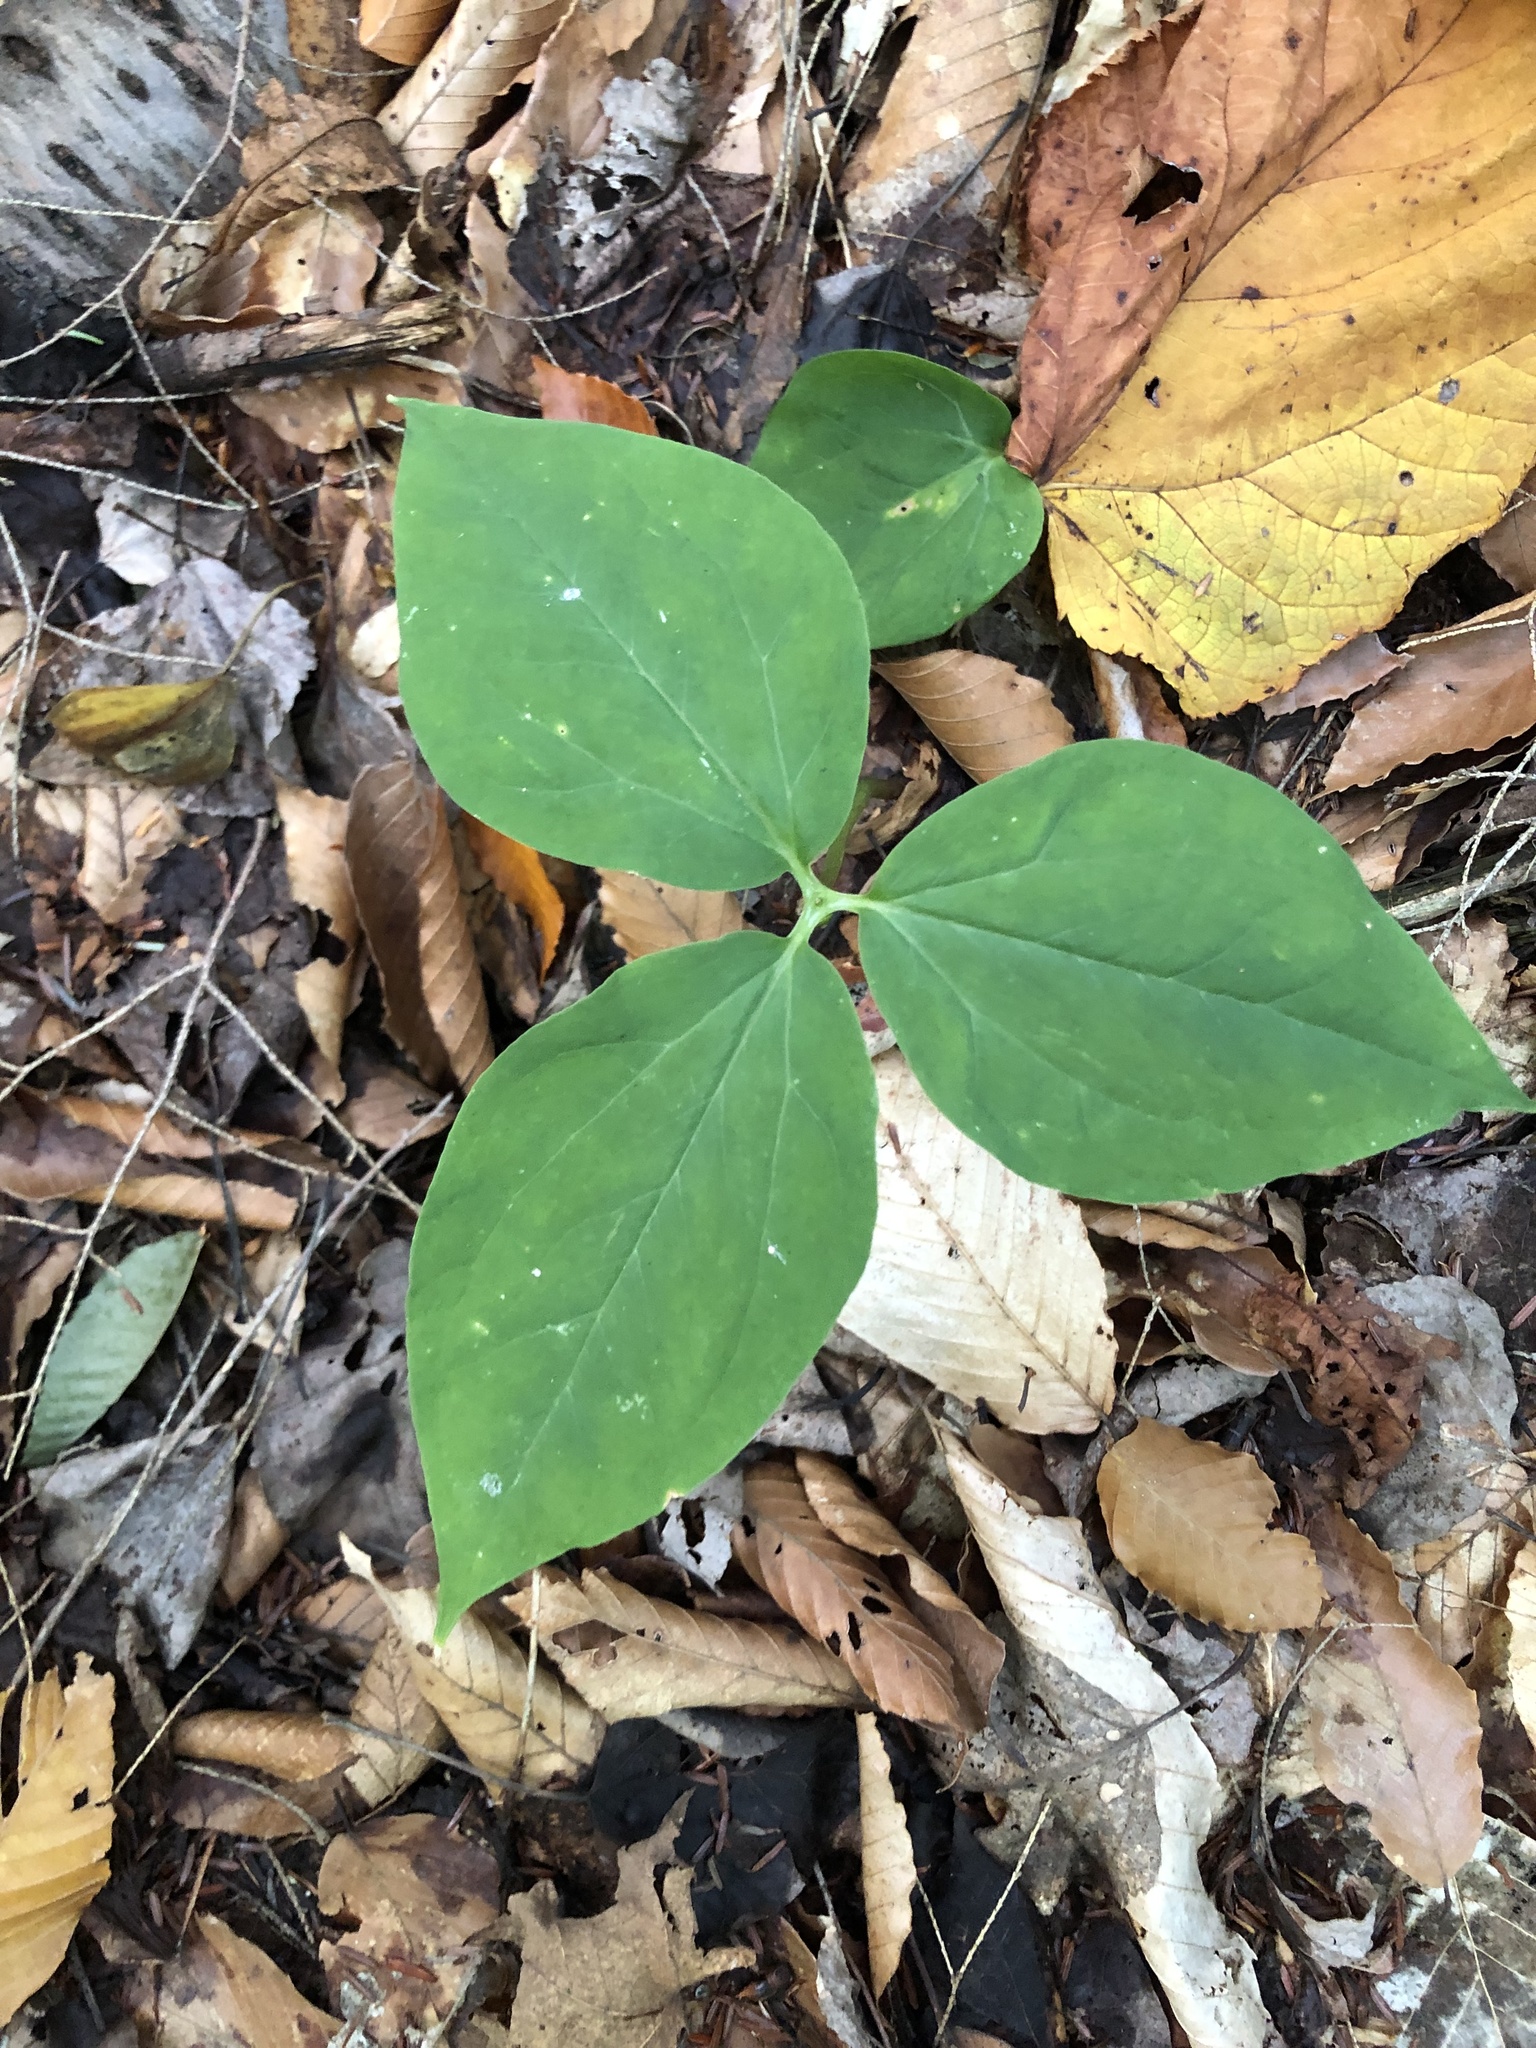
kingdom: Plantae
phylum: Tracheophyta
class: Liliopsida
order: Liliales
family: Melanthiaceae
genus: Trillium
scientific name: Trillium undulatum
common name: Paint trillium
